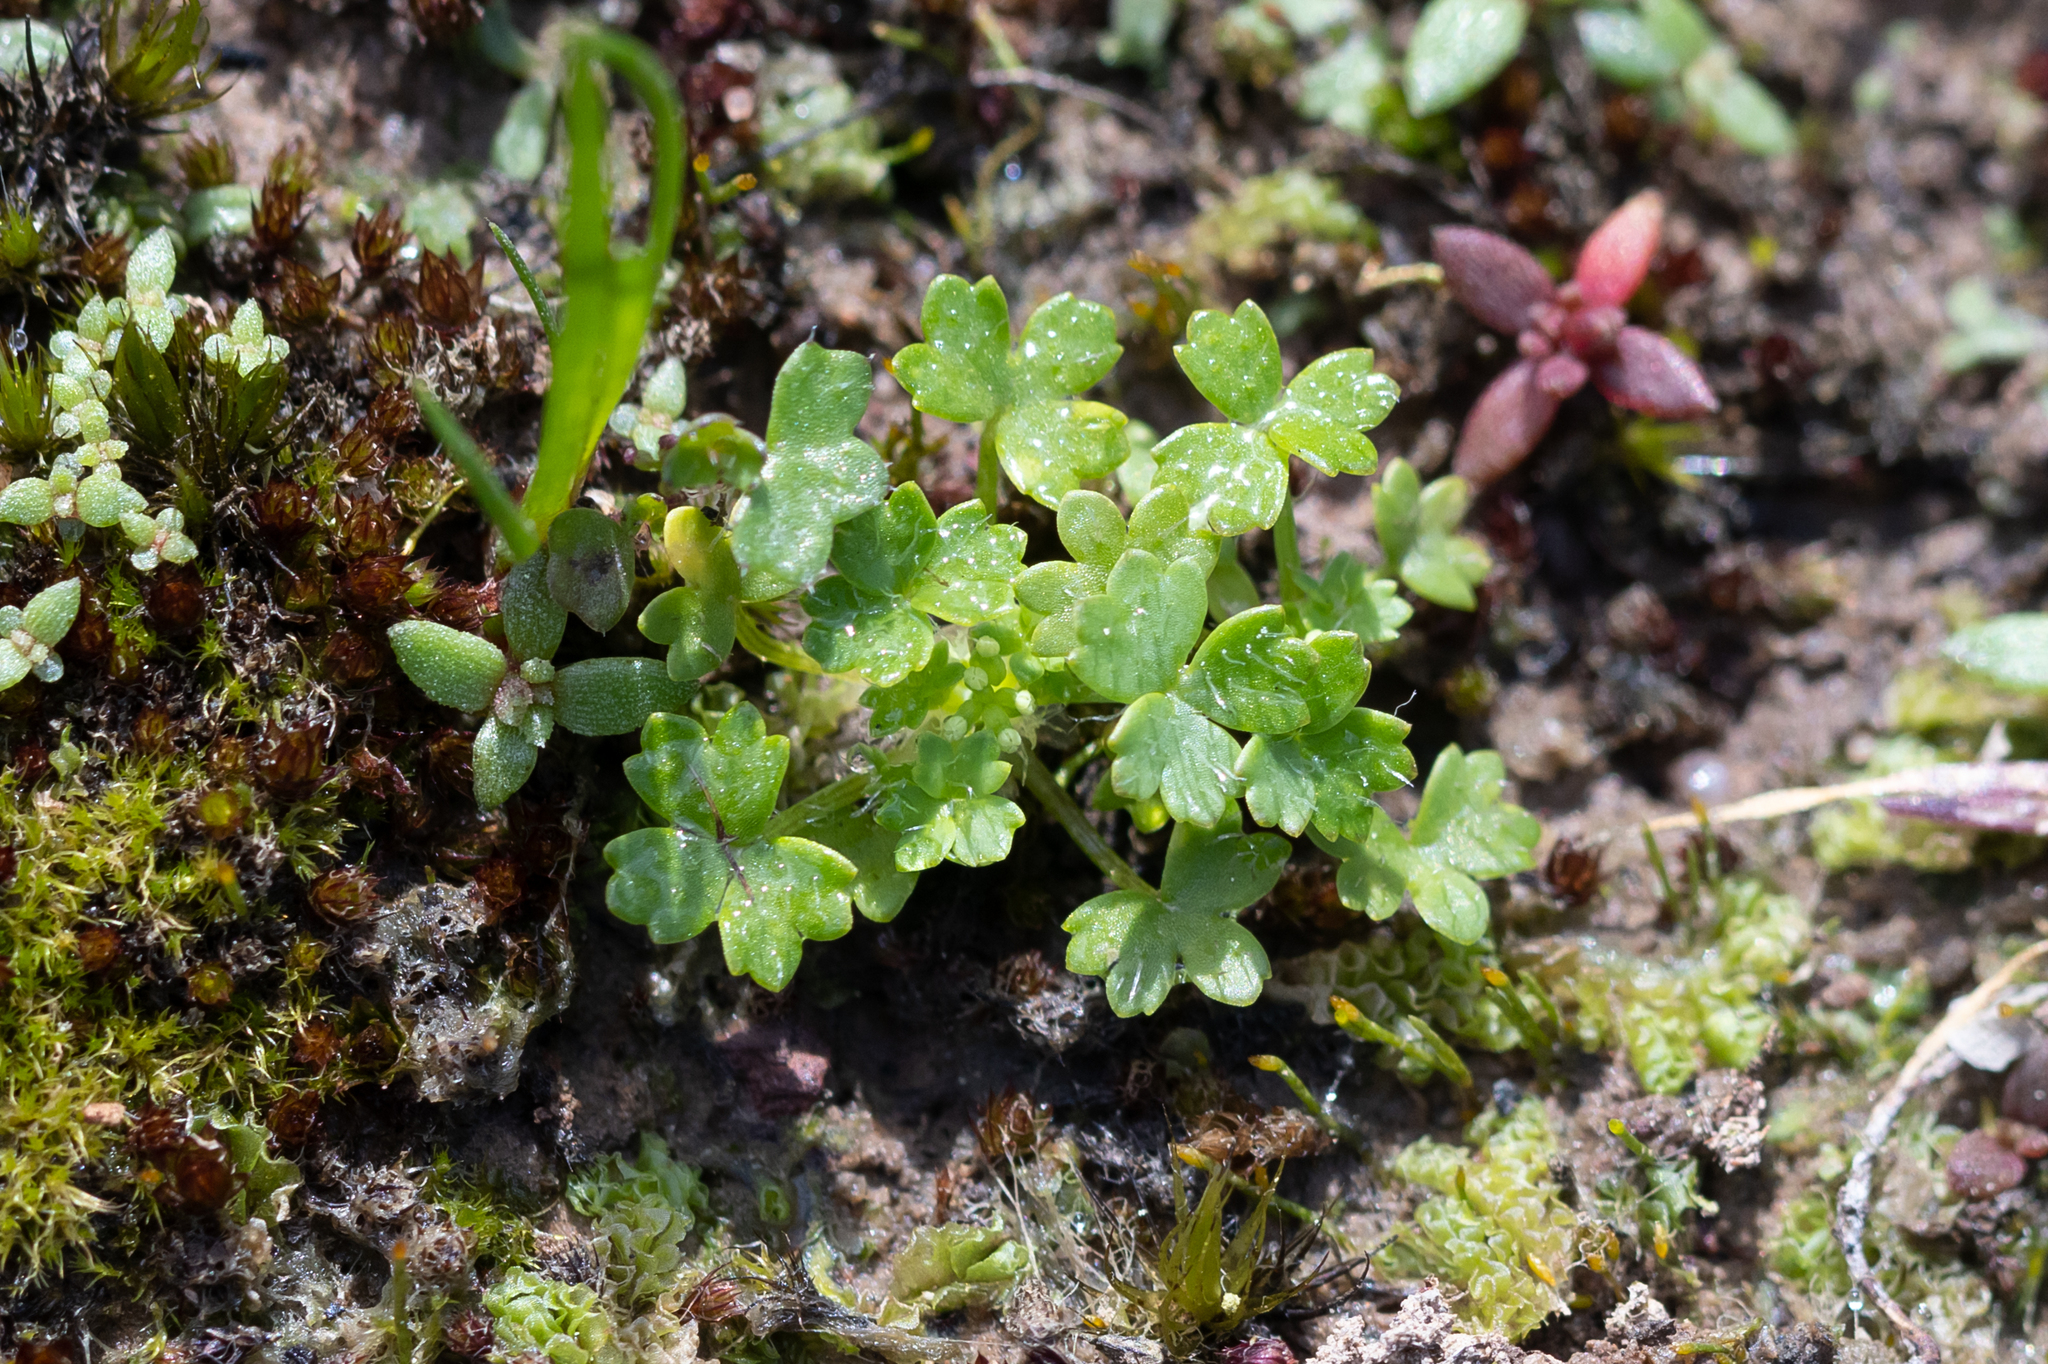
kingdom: Plantae
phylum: Tracheophyta
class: Magnoliopsida
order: Apiales
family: Araliaceae
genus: Hydrocotyle
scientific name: Hydrocotyle foveolata
